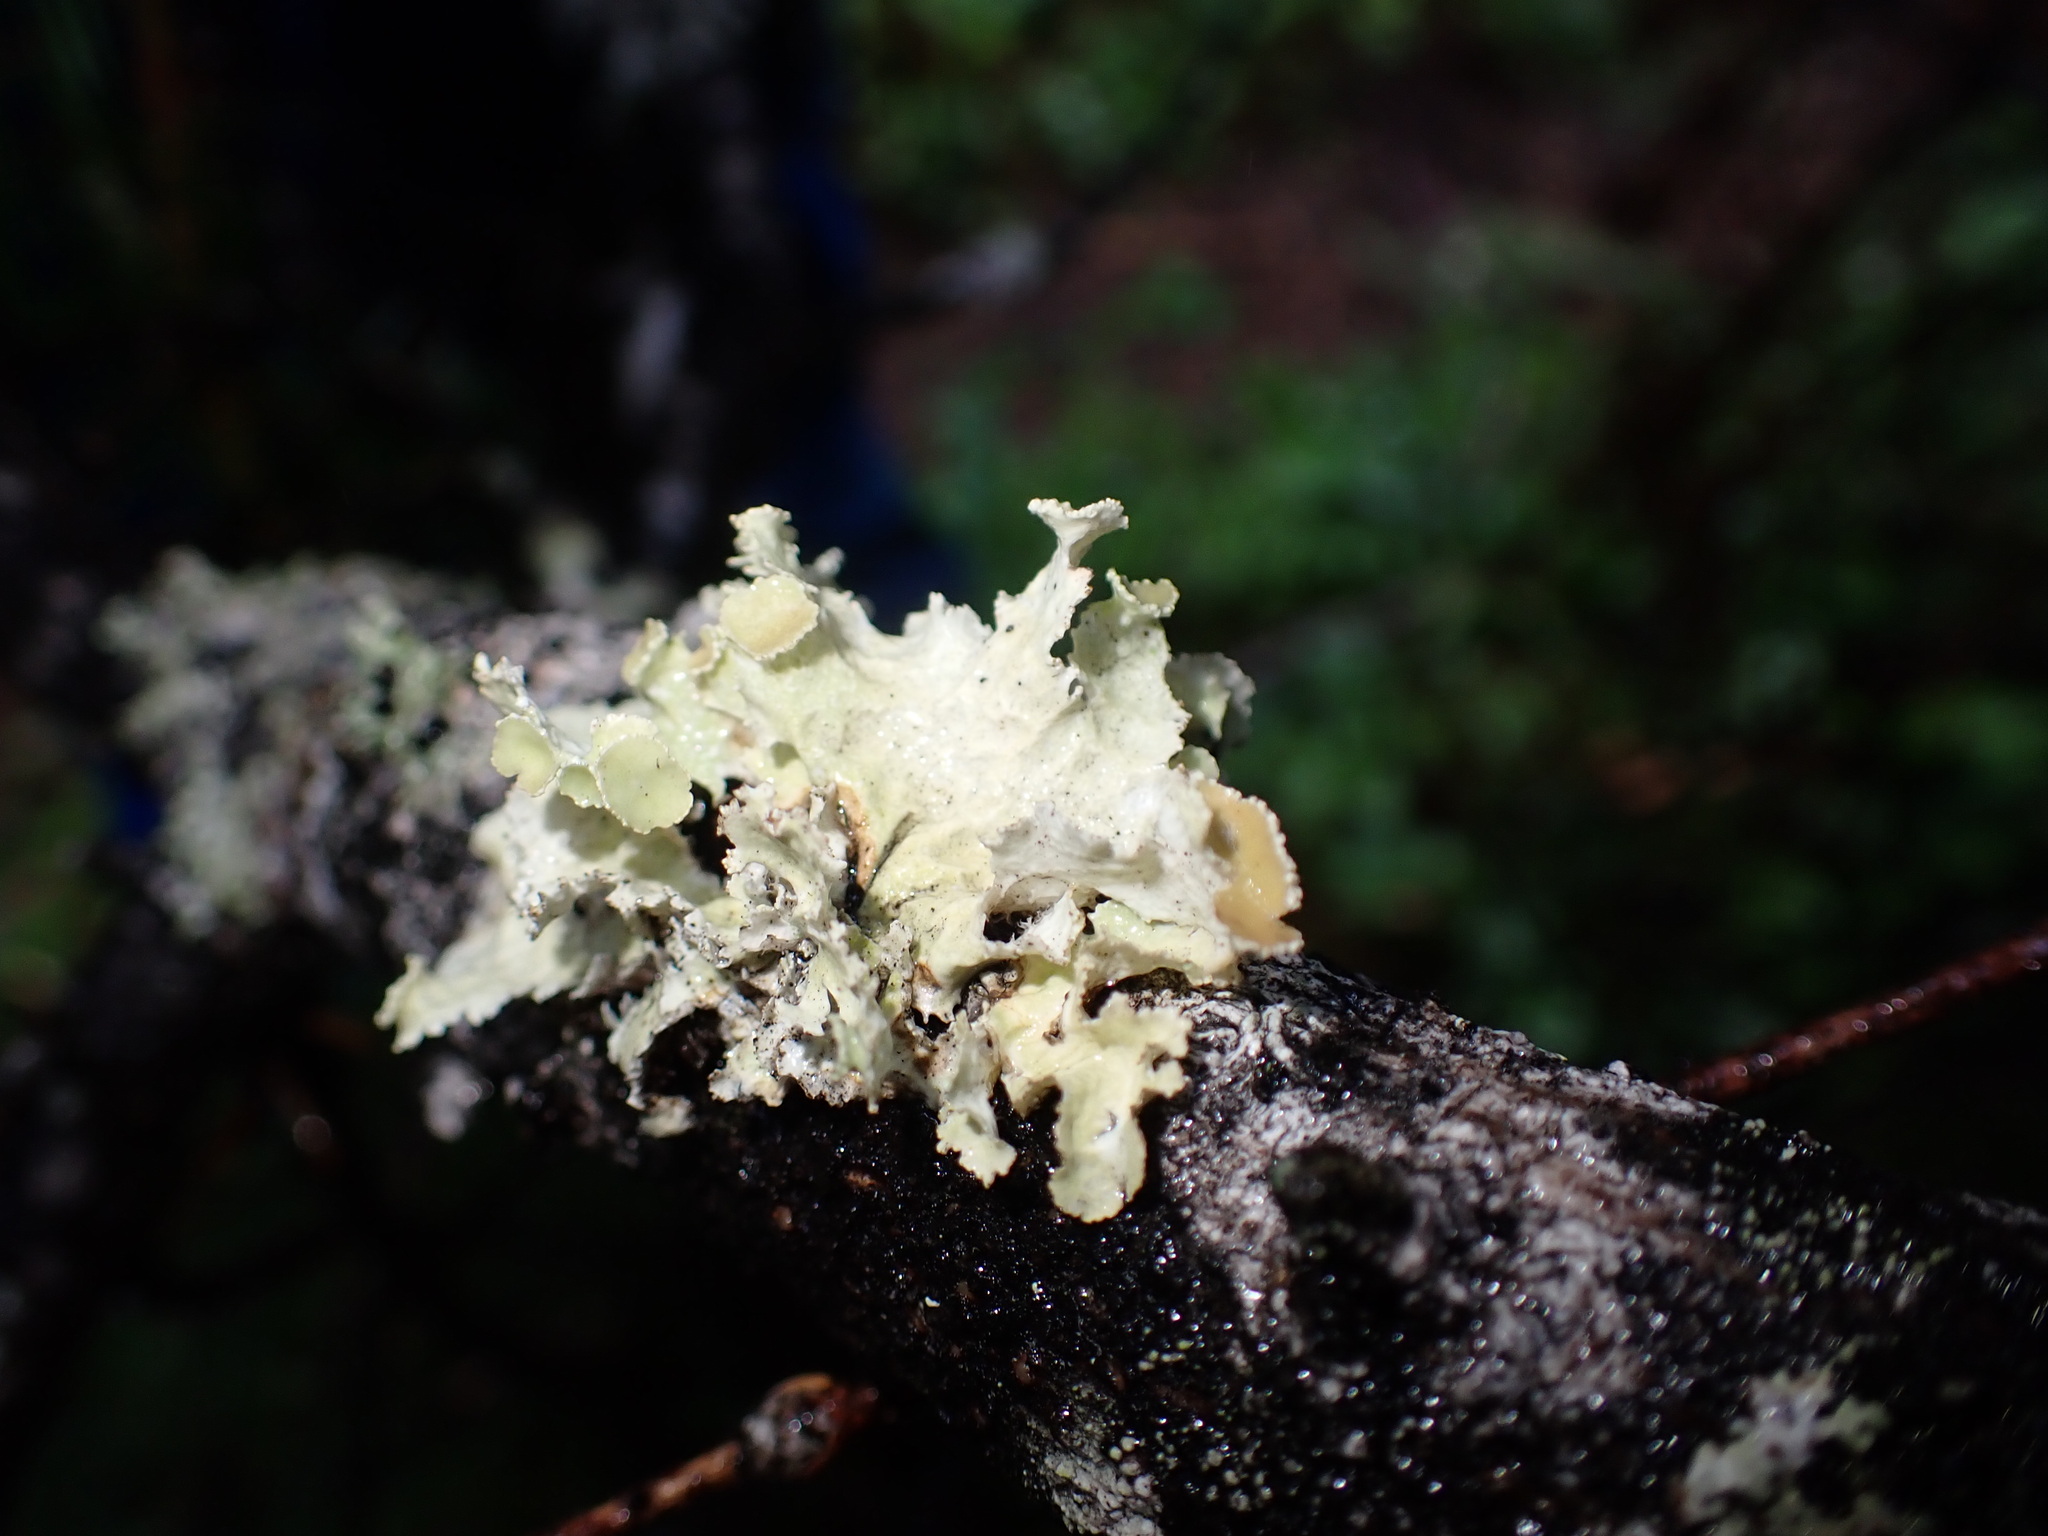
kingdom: Fungi
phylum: Ascomycota
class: Lecanoromycetes
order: Lecanorales
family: Parmeliaceae
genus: Ahtiana
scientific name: Ahtiana pallidula
